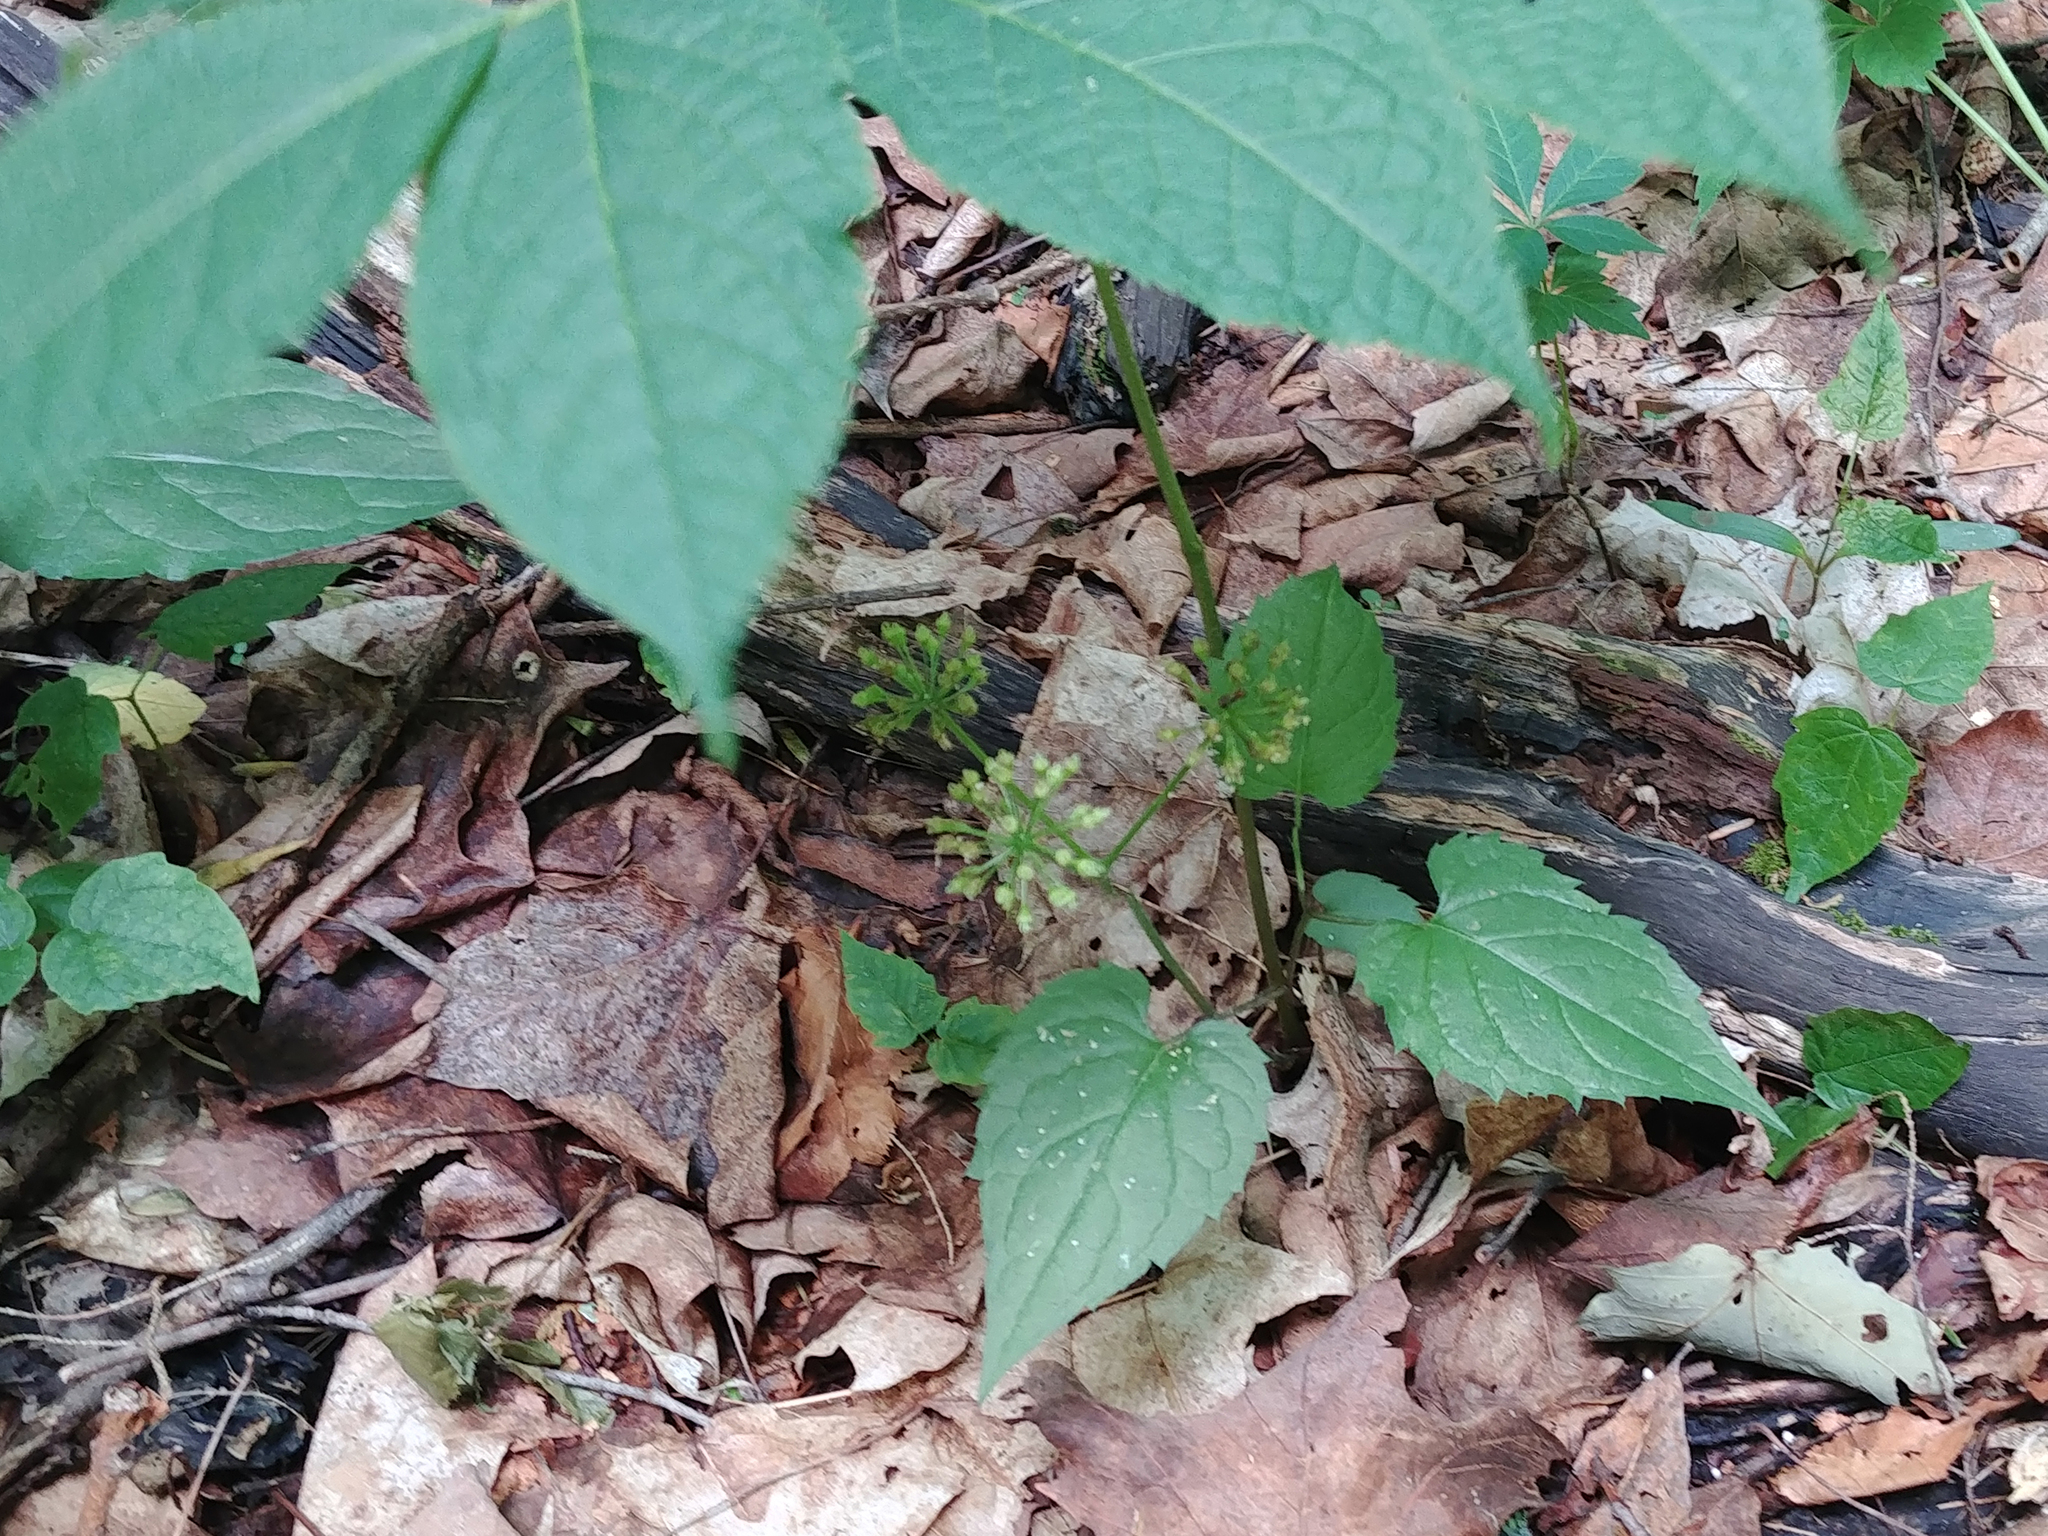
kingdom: Plantae
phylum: Tracheophyta
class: Magnoliopsida
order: Apiales
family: Araliaceae
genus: Aralia
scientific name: Aralia nudicaulis
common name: Wild sarsaparilla
